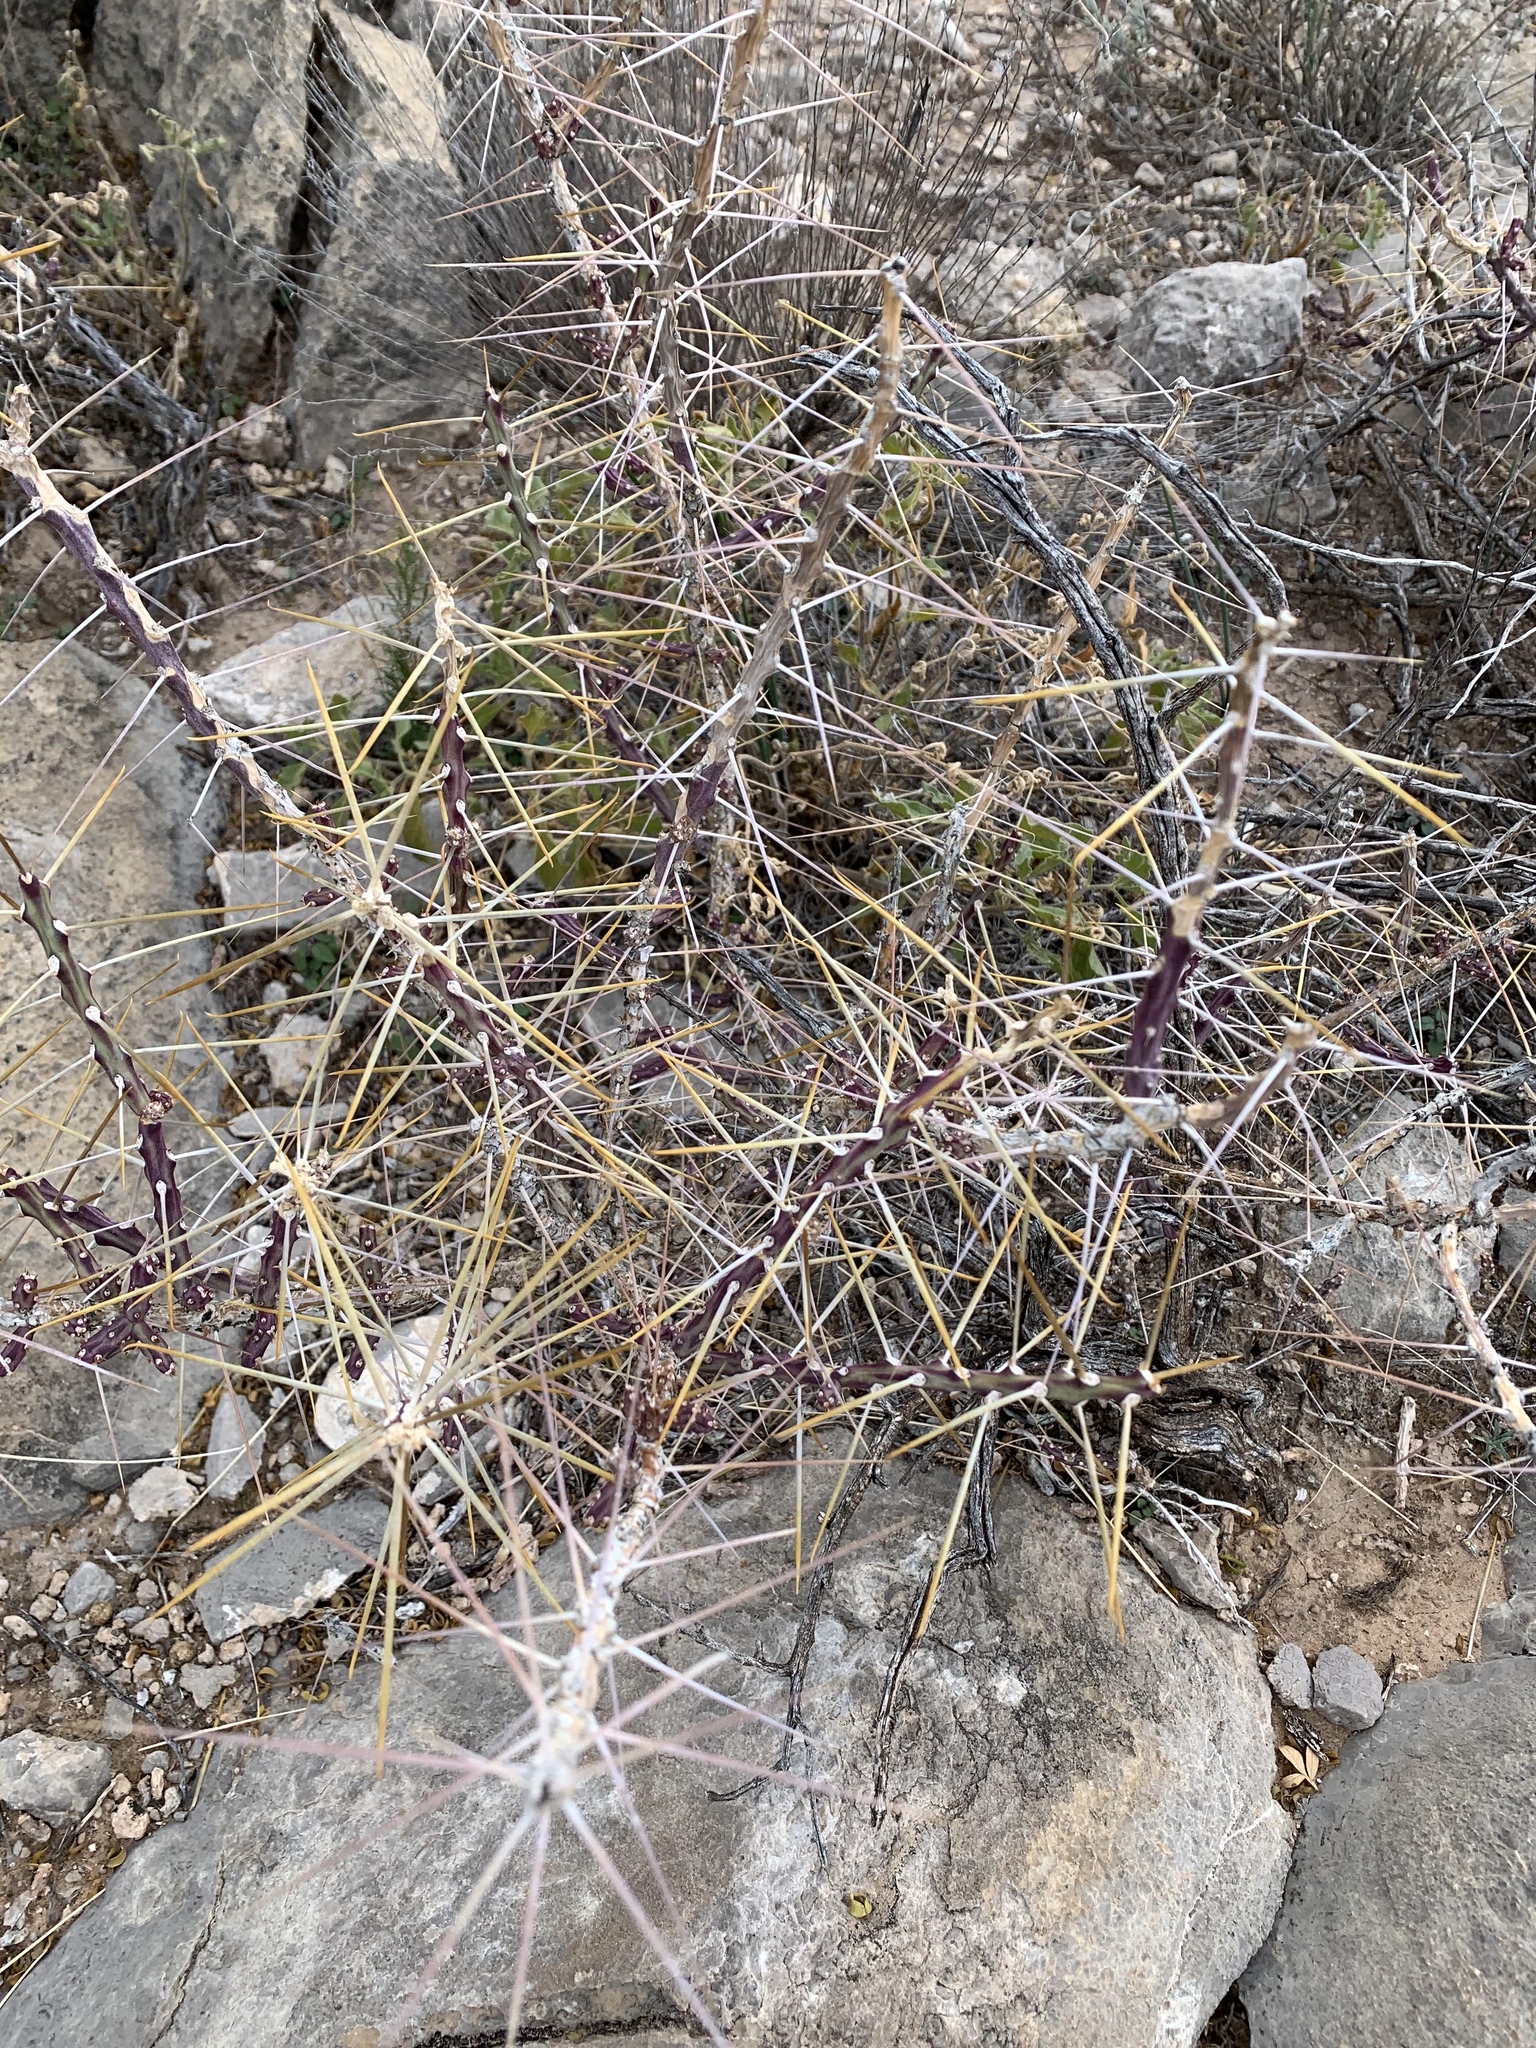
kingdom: Plantae
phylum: Tracheophyta
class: Magnoliopsida
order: Caryophyllales
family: Cactaceae
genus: Cylindropuntia
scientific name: Cylindropuntia leptocaulis
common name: Christmas cactus
